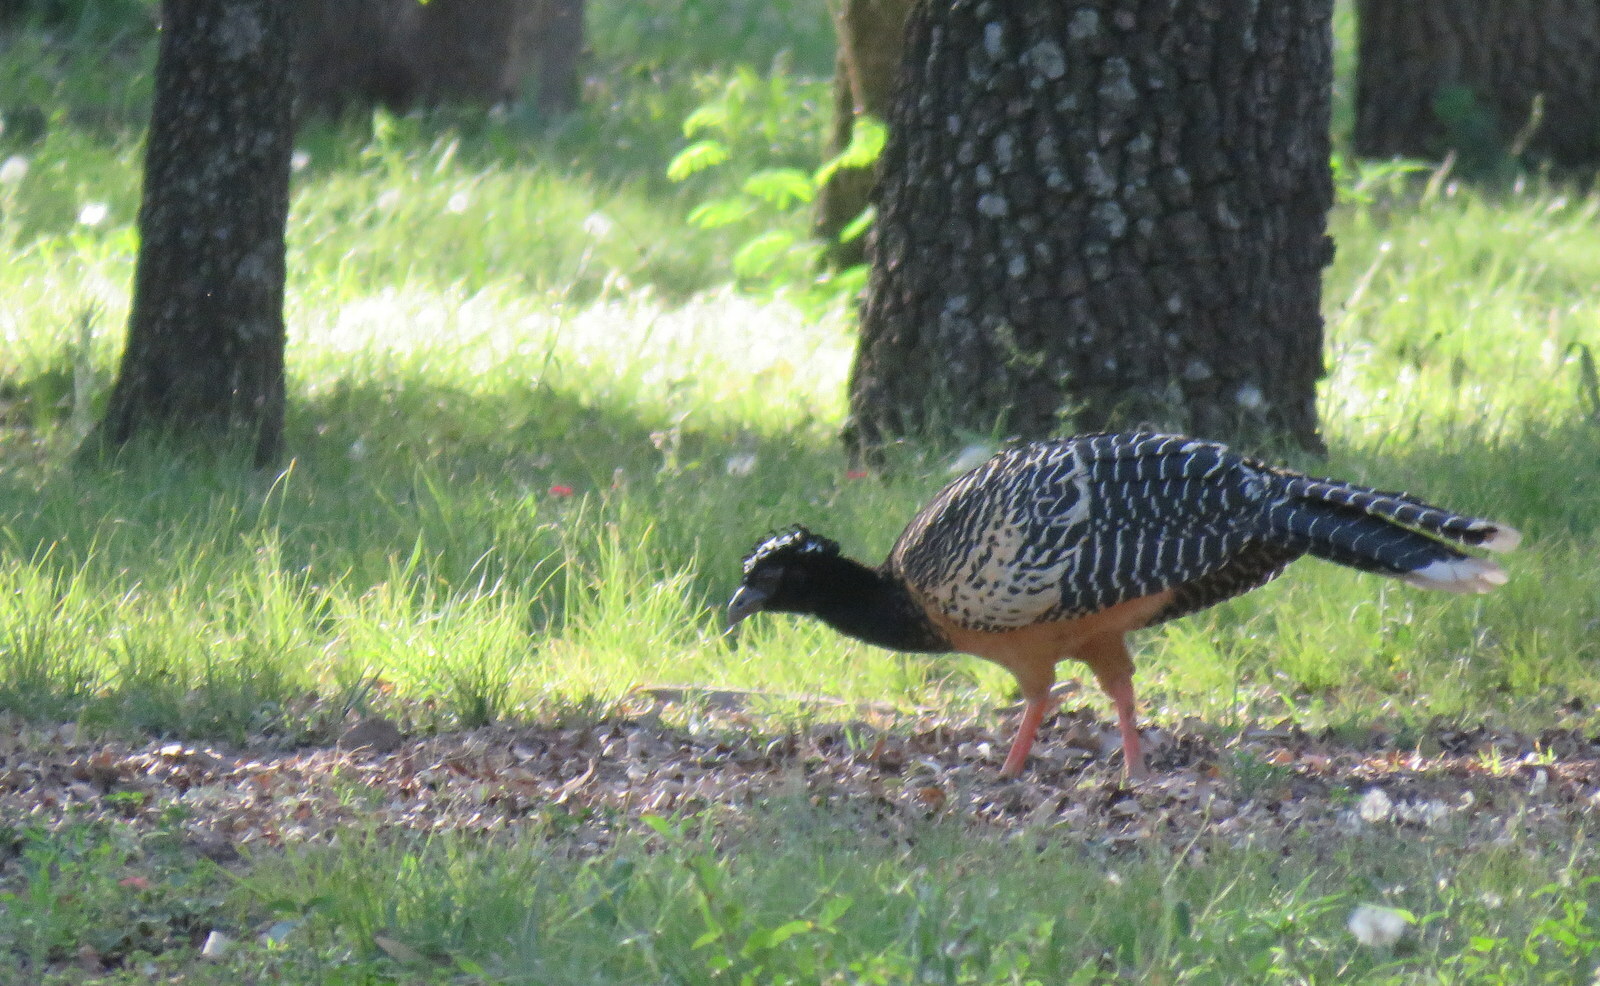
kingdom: Animalia
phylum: Chordata
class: Aves
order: Galliformes
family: Cracidae
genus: Crax
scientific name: Crax fasciolata
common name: Bare-faced curassow
